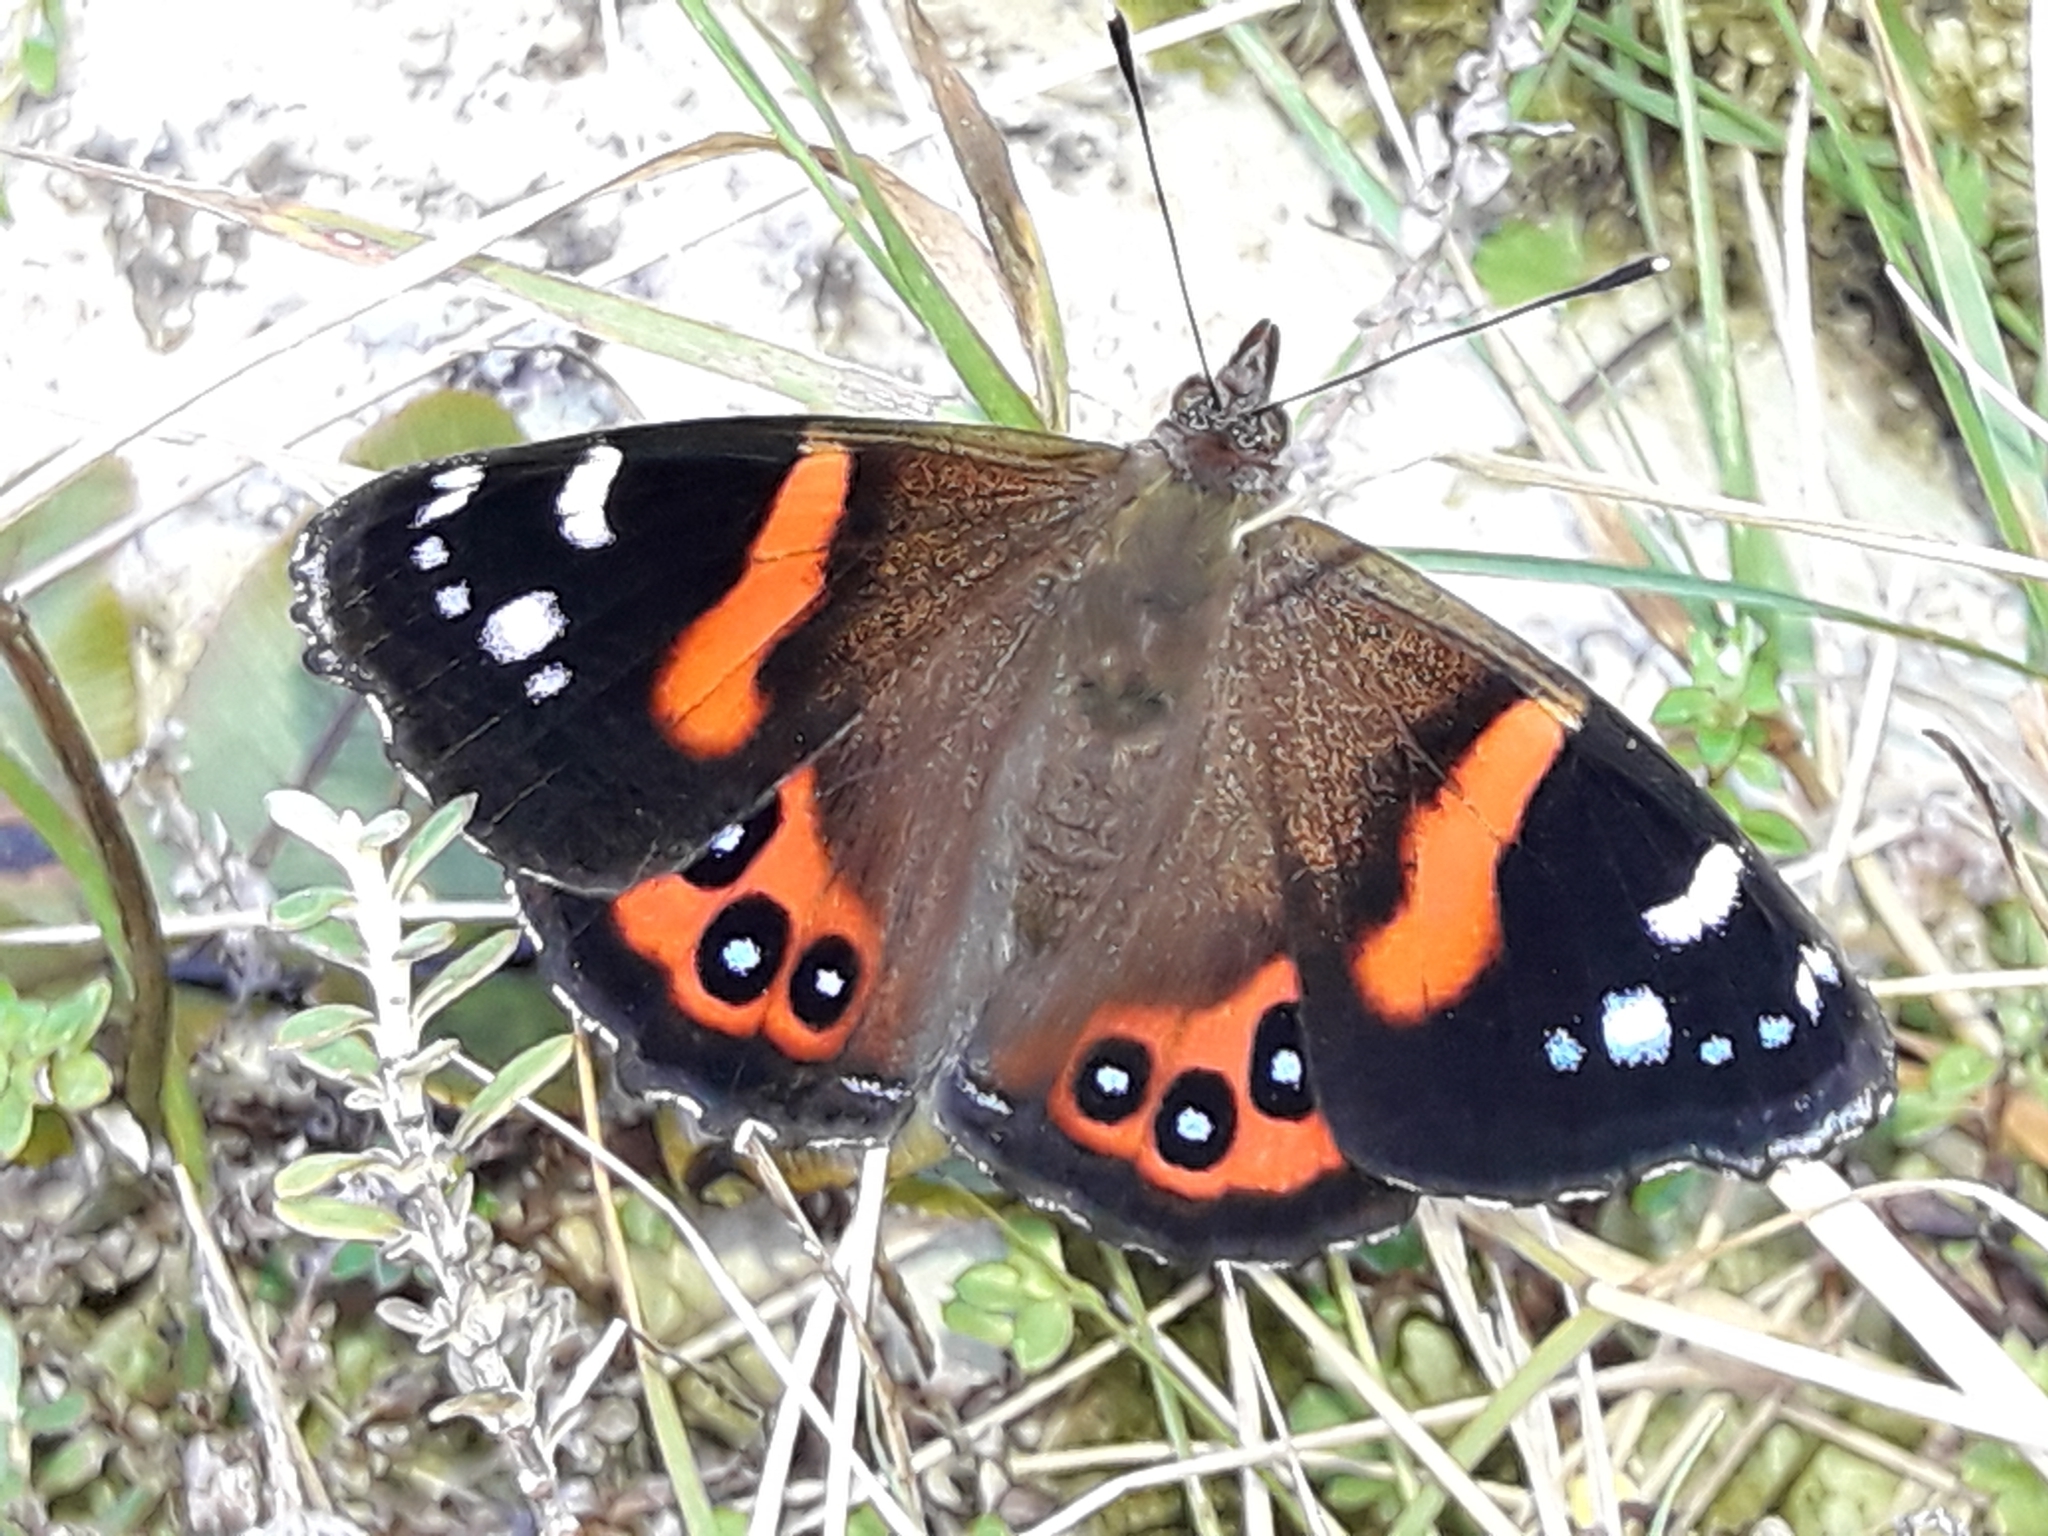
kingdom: Animalia
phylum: Arthropoda
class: Insecta
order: Lepidoptera
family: Nymphalidae
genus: Vanessa
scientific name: Vanessa gonerilla
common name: New zealand red admiral
